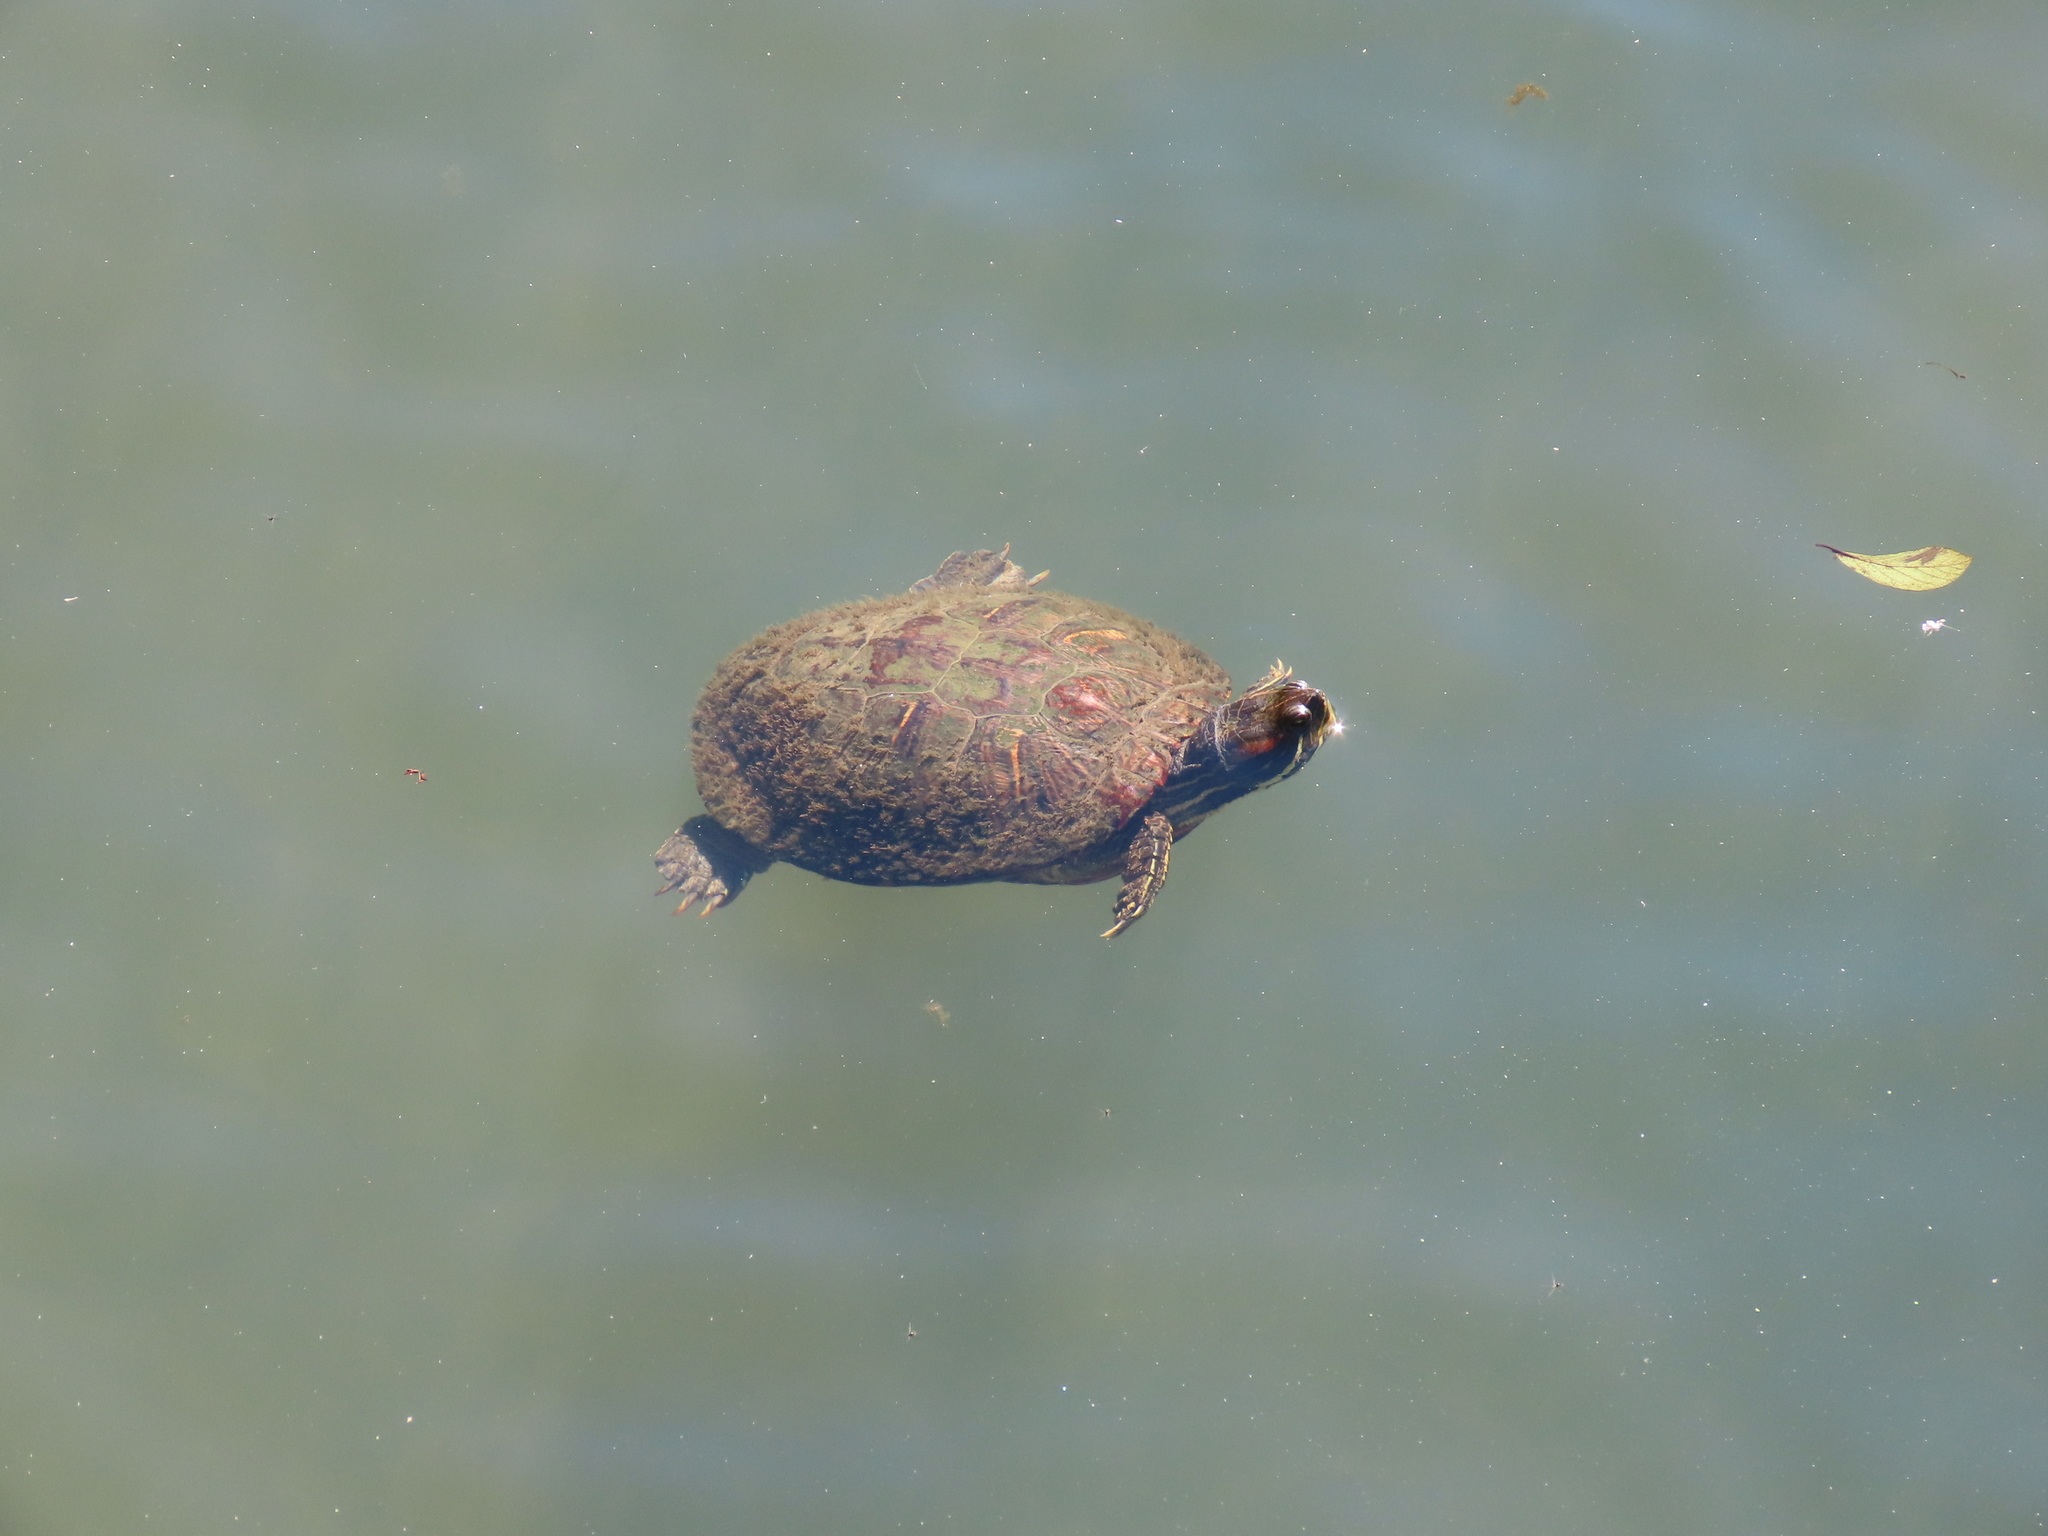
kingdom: Animalia
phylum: Chordata
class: Testudines
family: Emydidae
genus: Trachemys
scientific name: Trachemys scripta
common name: Slider
